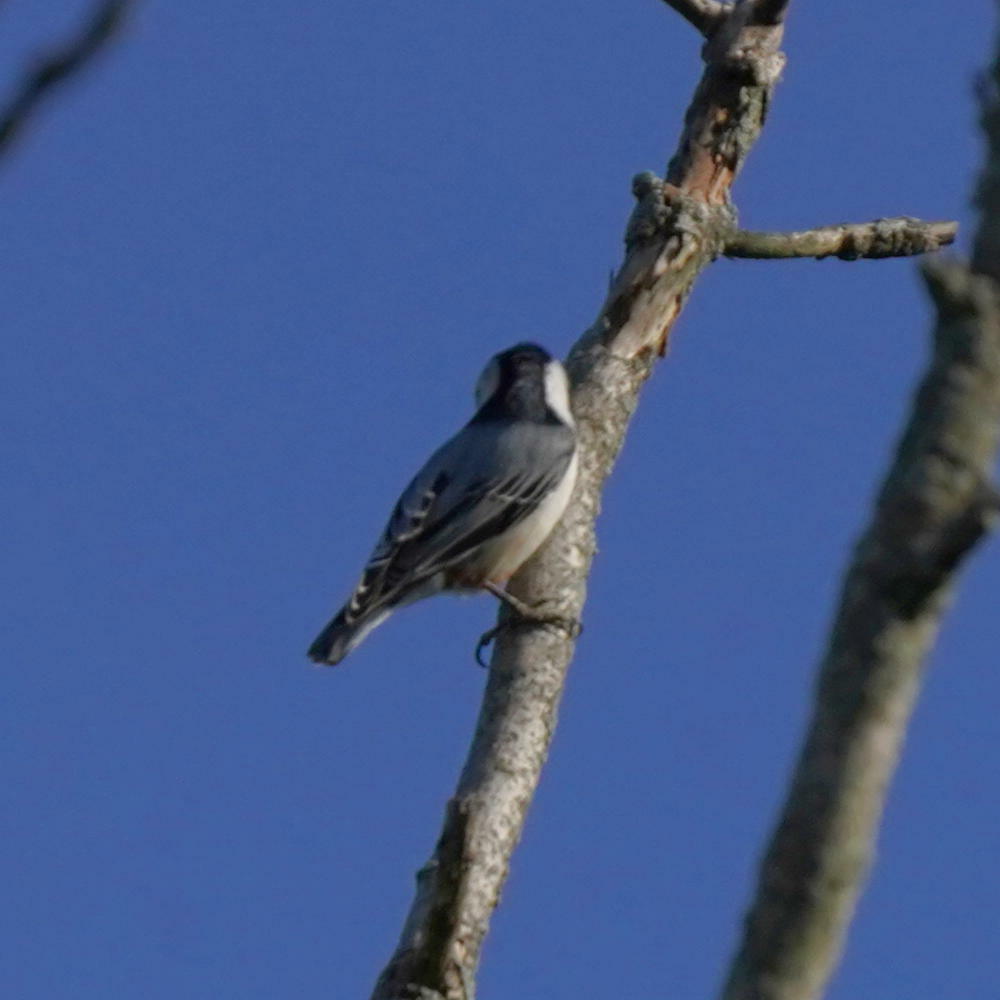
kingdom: Animalia
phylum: Chordata
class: Aves
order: Passeriformes
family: Sittidae
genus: Sitta
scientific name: Sitta carolinensis
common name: White-breasted nuthatch
